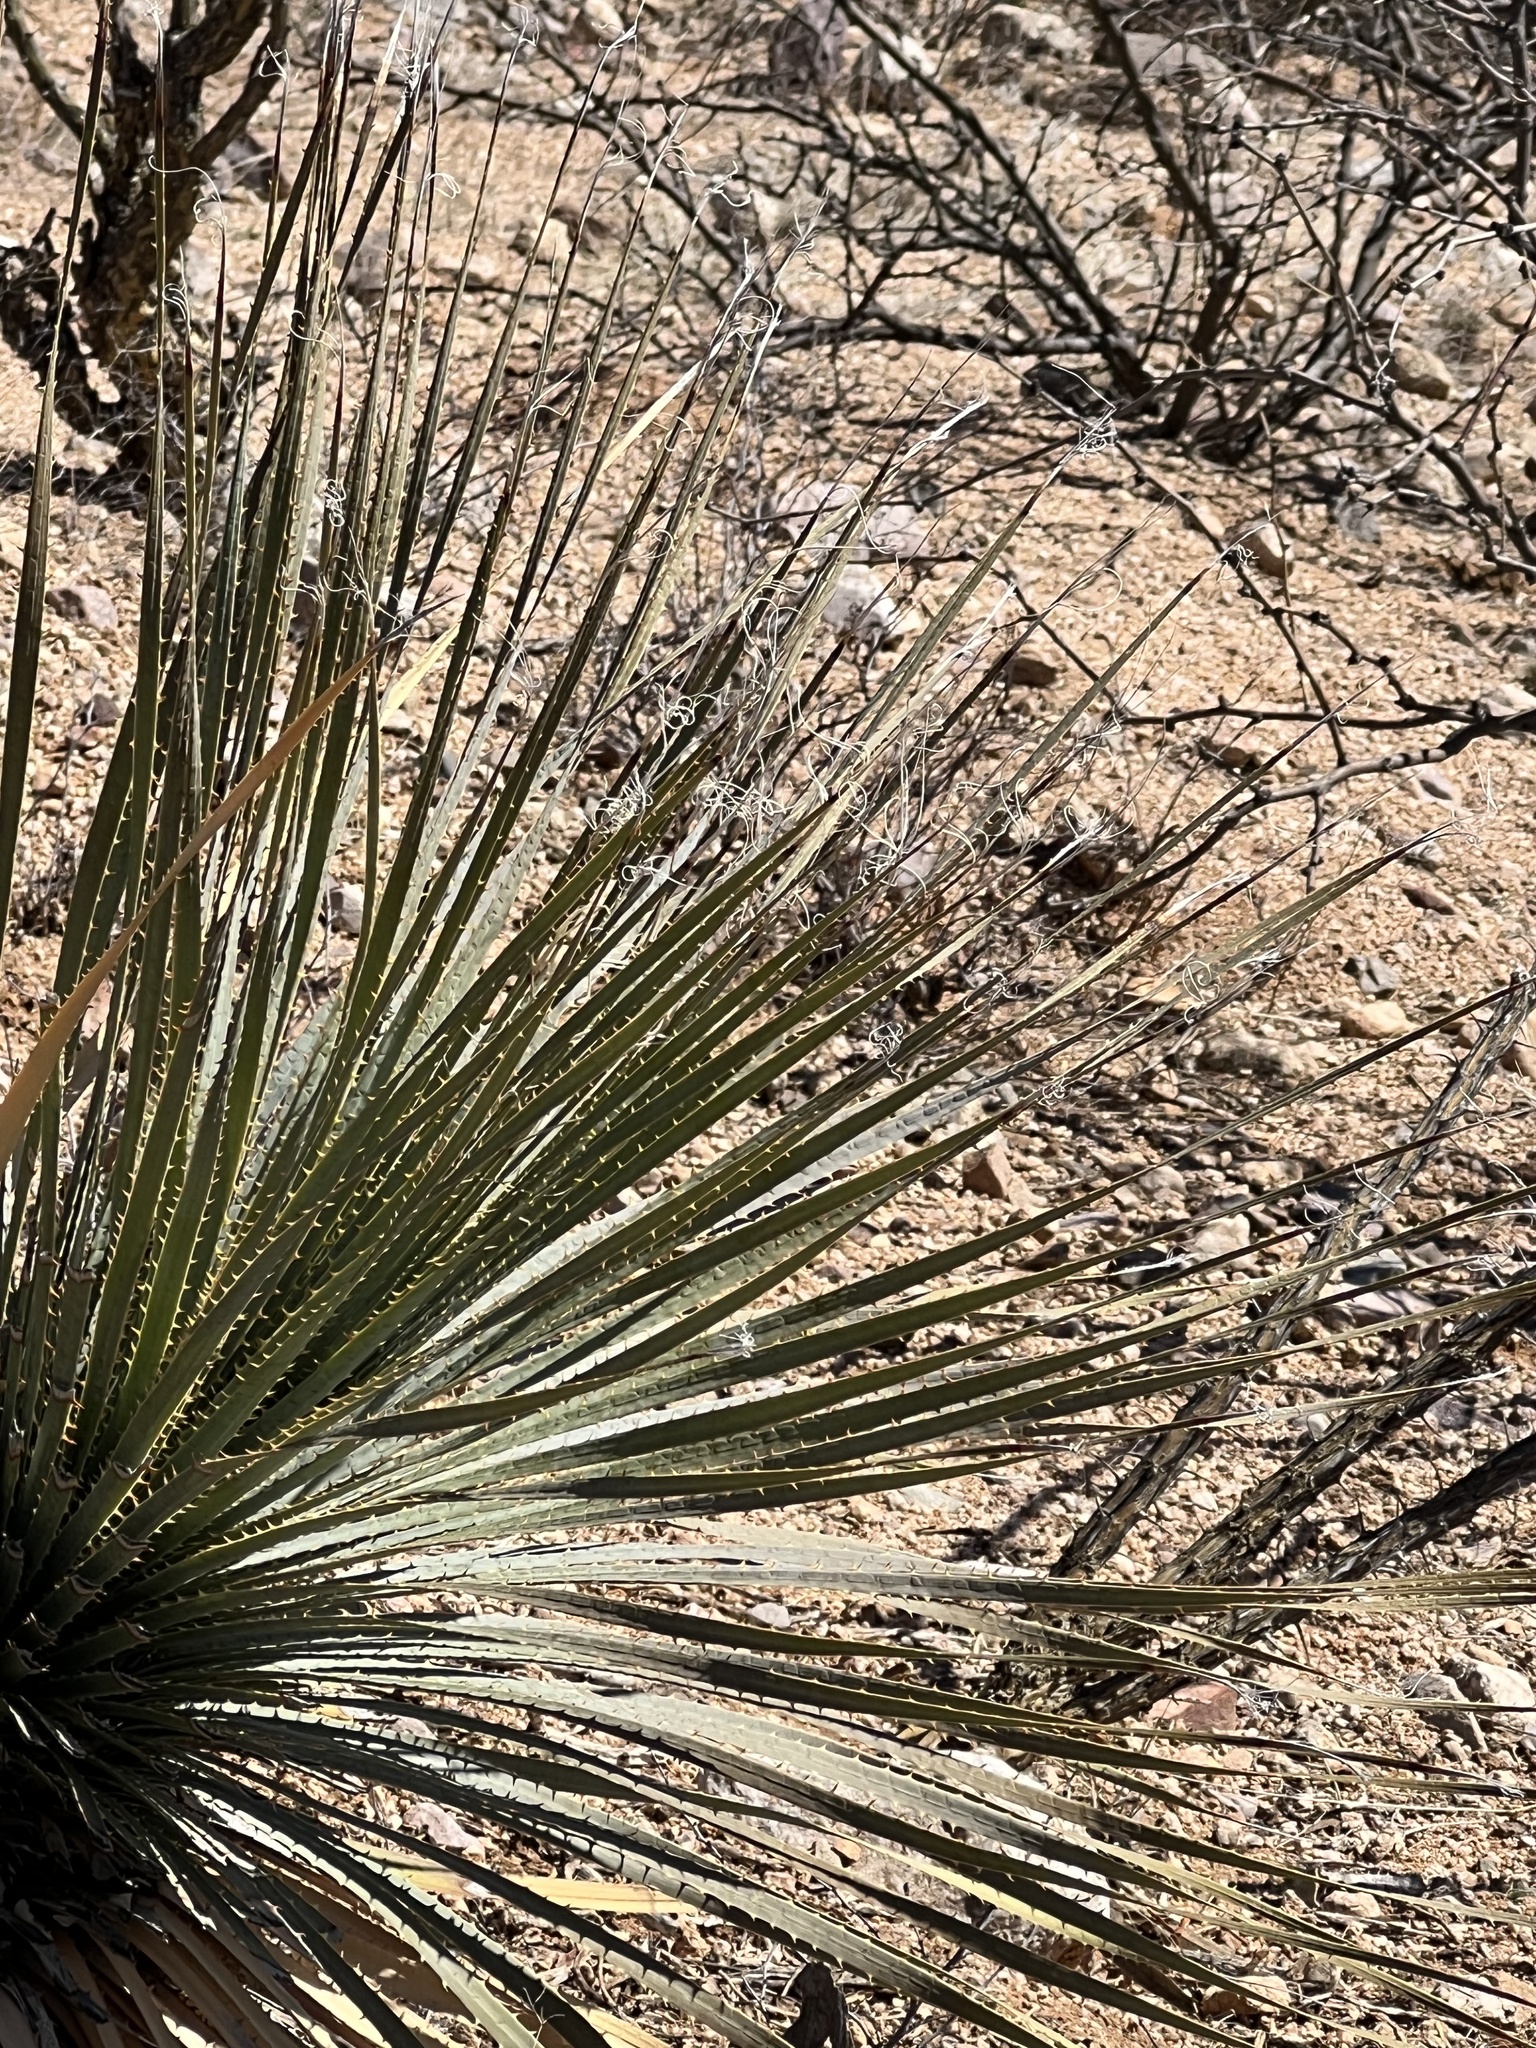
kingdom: Plantae
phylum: Tracheophyta
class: Liliopsida
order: Asparagales
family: Asparagaceae
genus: Dasylirion
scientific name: Dasylirion wheeleri
